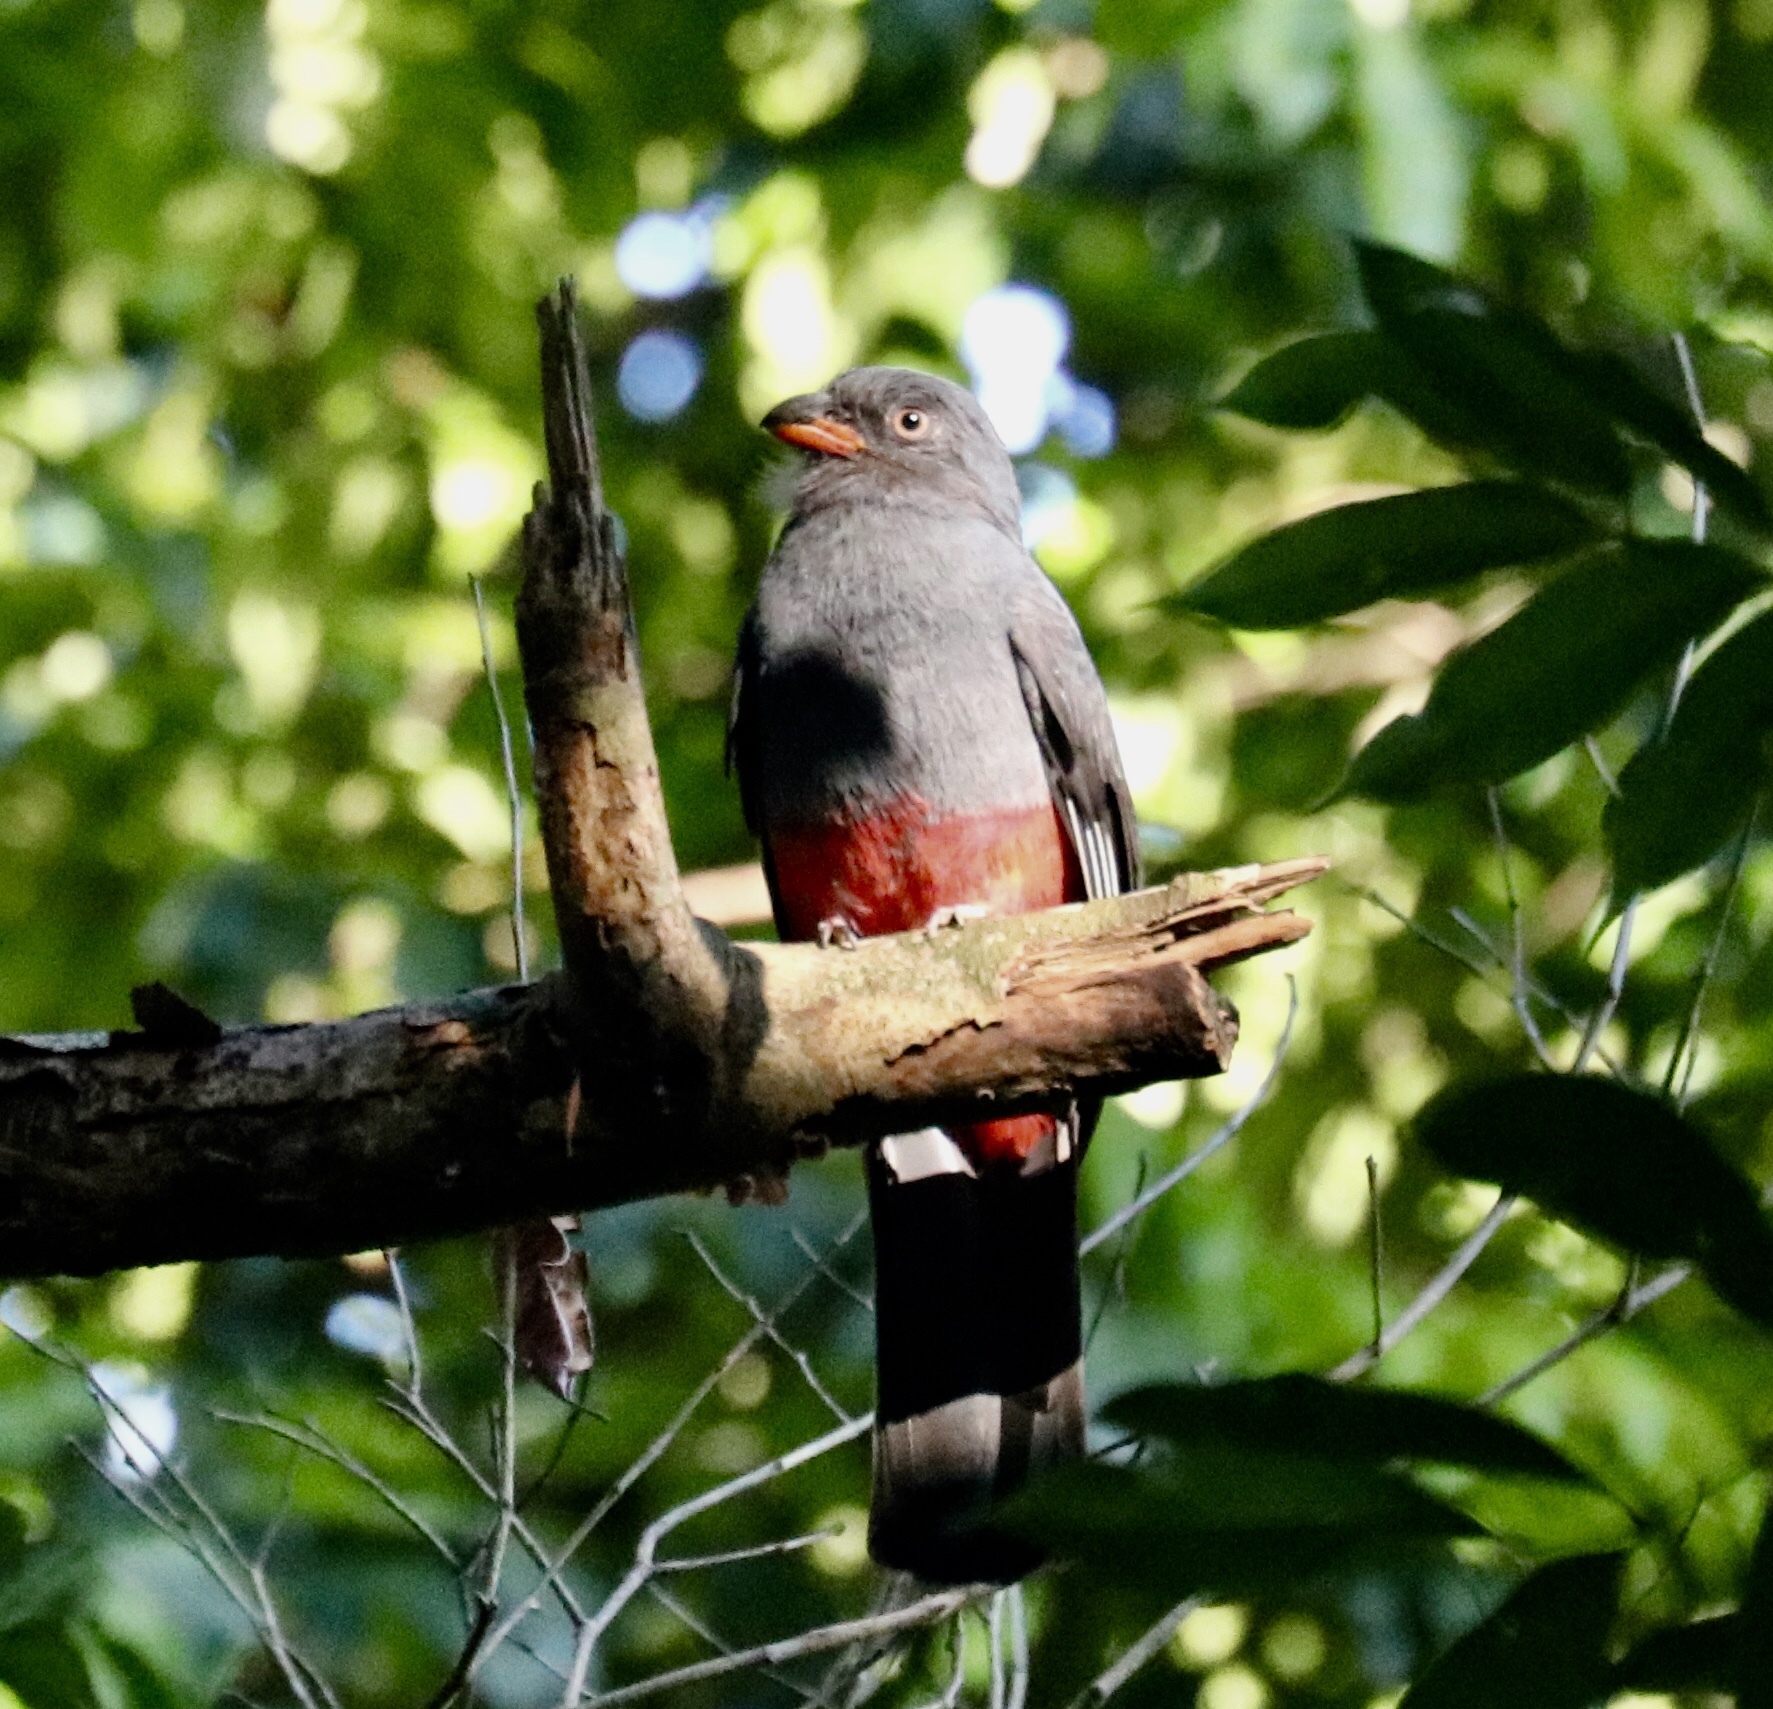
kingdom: Animalia
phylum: Chordata
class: Aves
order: Trogoniformes
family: Trogonidae
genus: Trogon
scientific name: Trogon massena
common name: Slaty-tailed trogon
